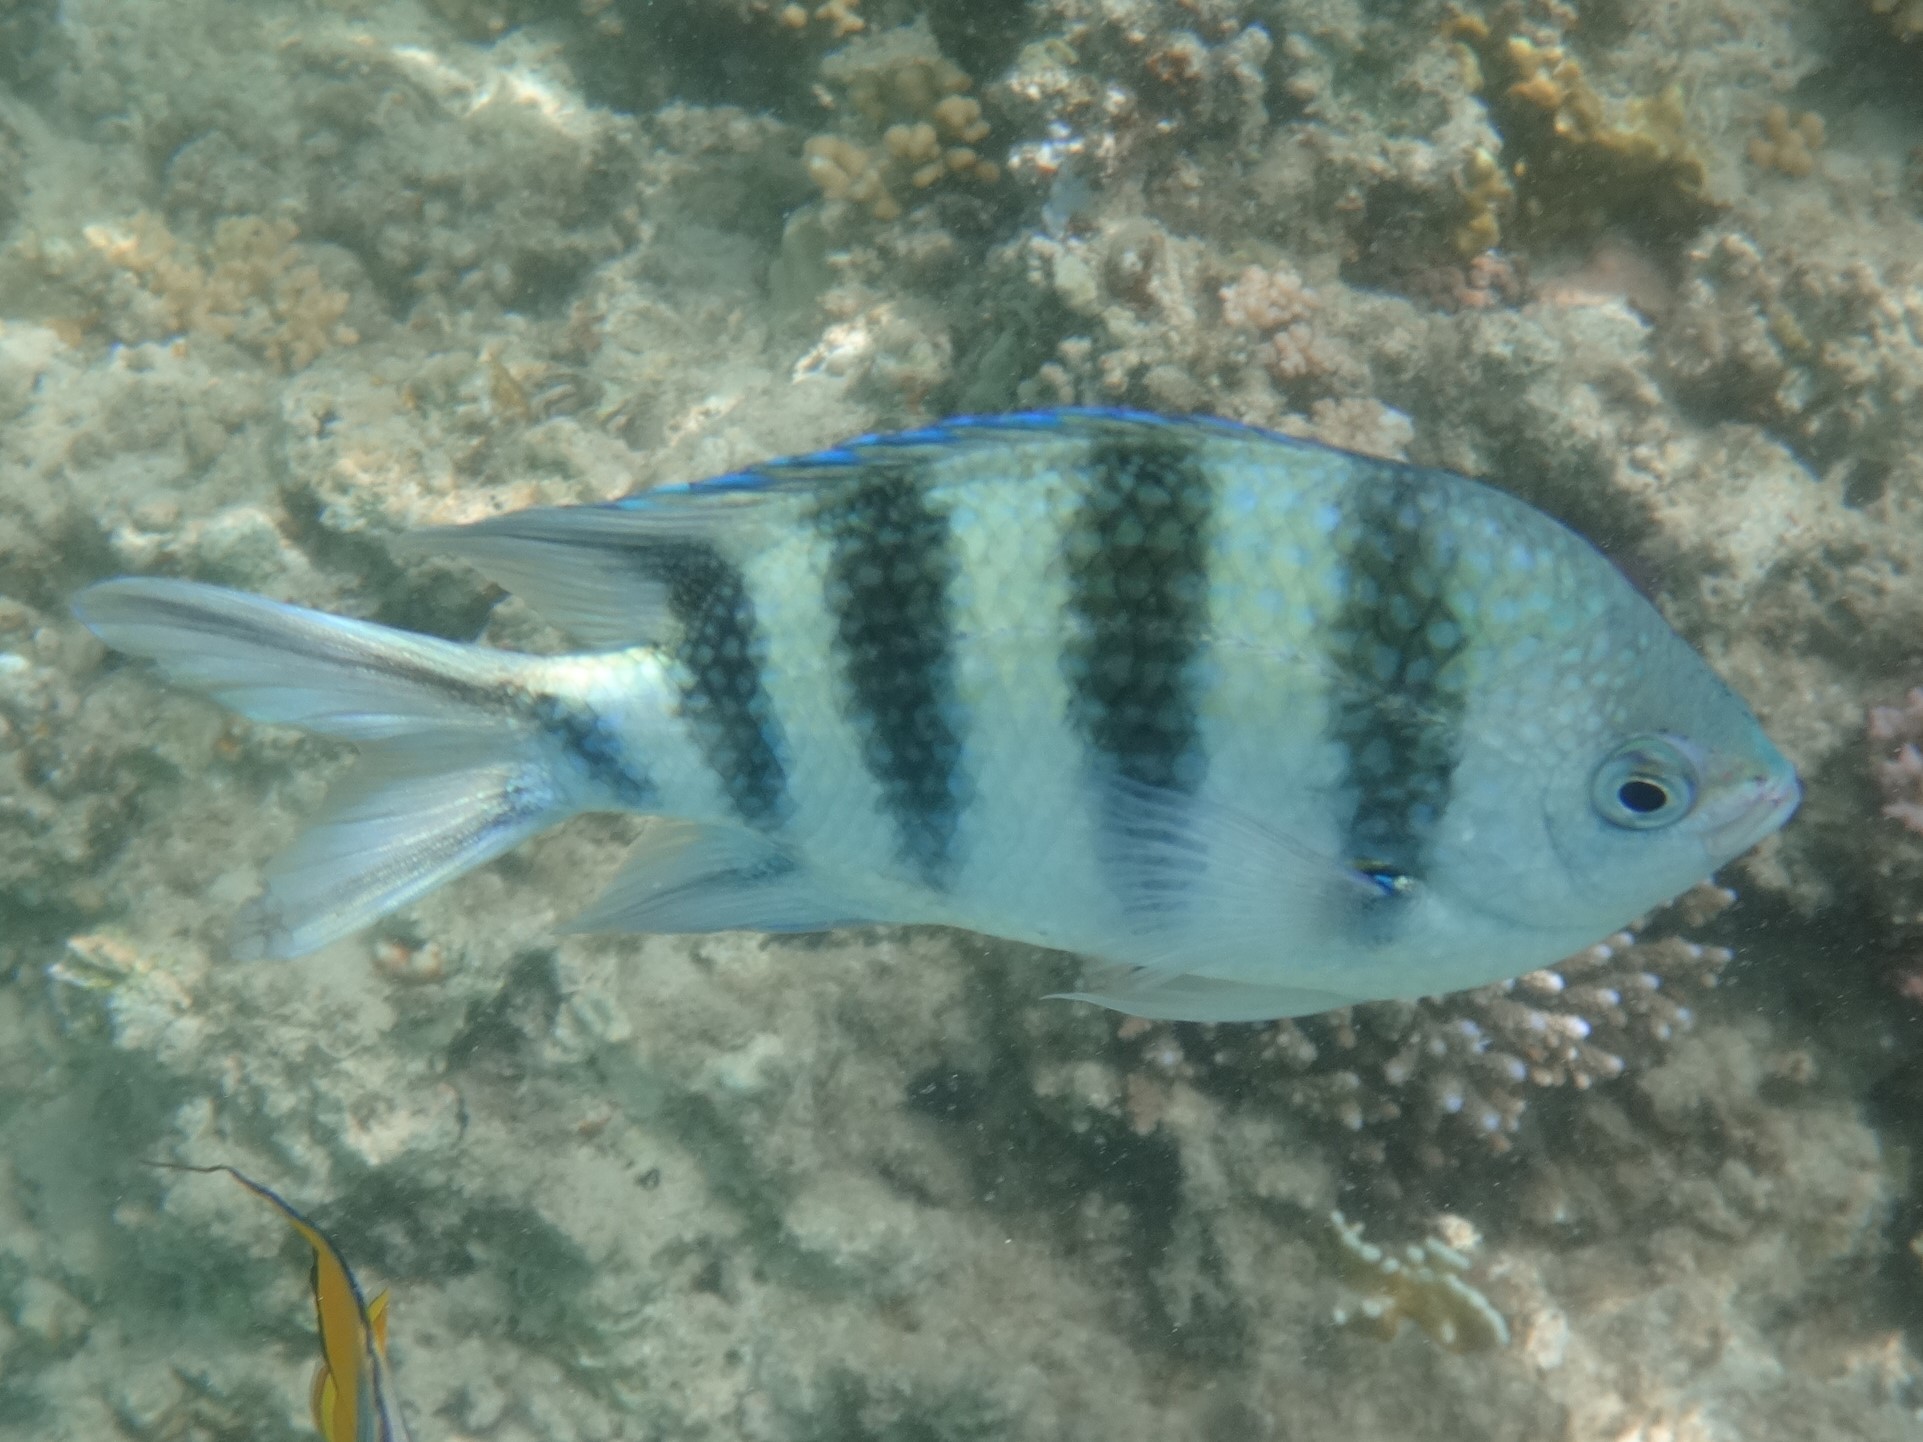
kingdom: Animalia
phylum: Chordata
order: Perciformes
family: Pomacentridae
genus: Abudefduf
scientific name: Abudefduf sexfasciatus
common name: Scissortail sergeant
